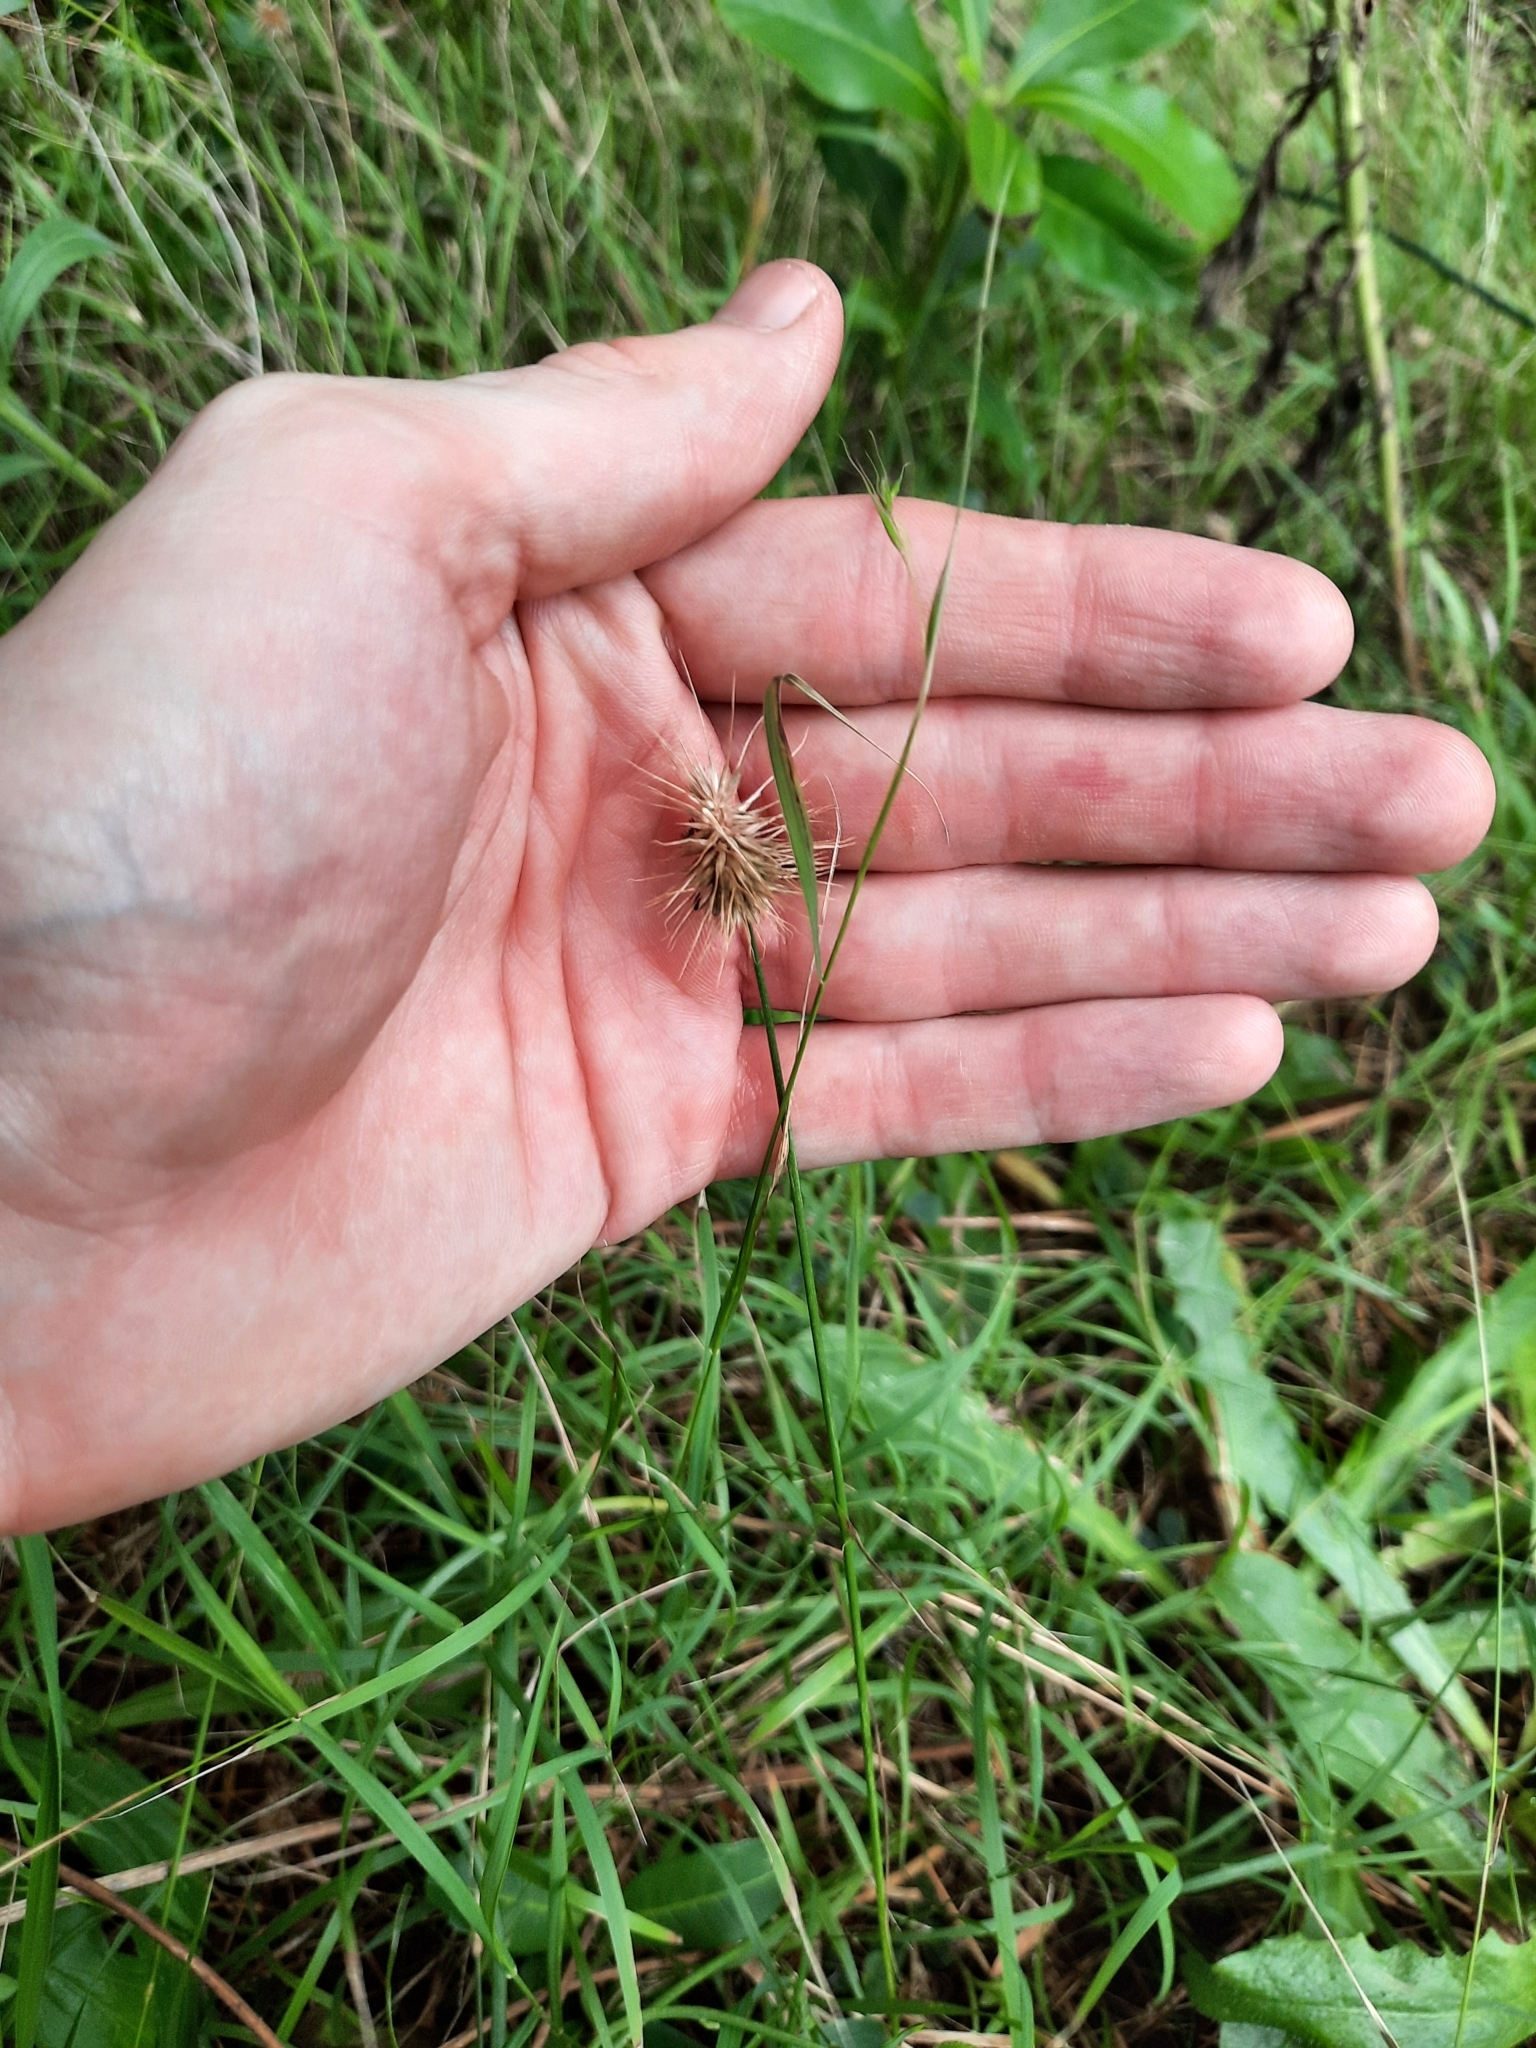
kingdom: Plantae
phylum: Tracheophyta
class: Liliopsida
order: Poales
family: Poaceae
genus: Echinopogon
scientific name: Echinopogon ovatus
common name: Hedgehog-grass
